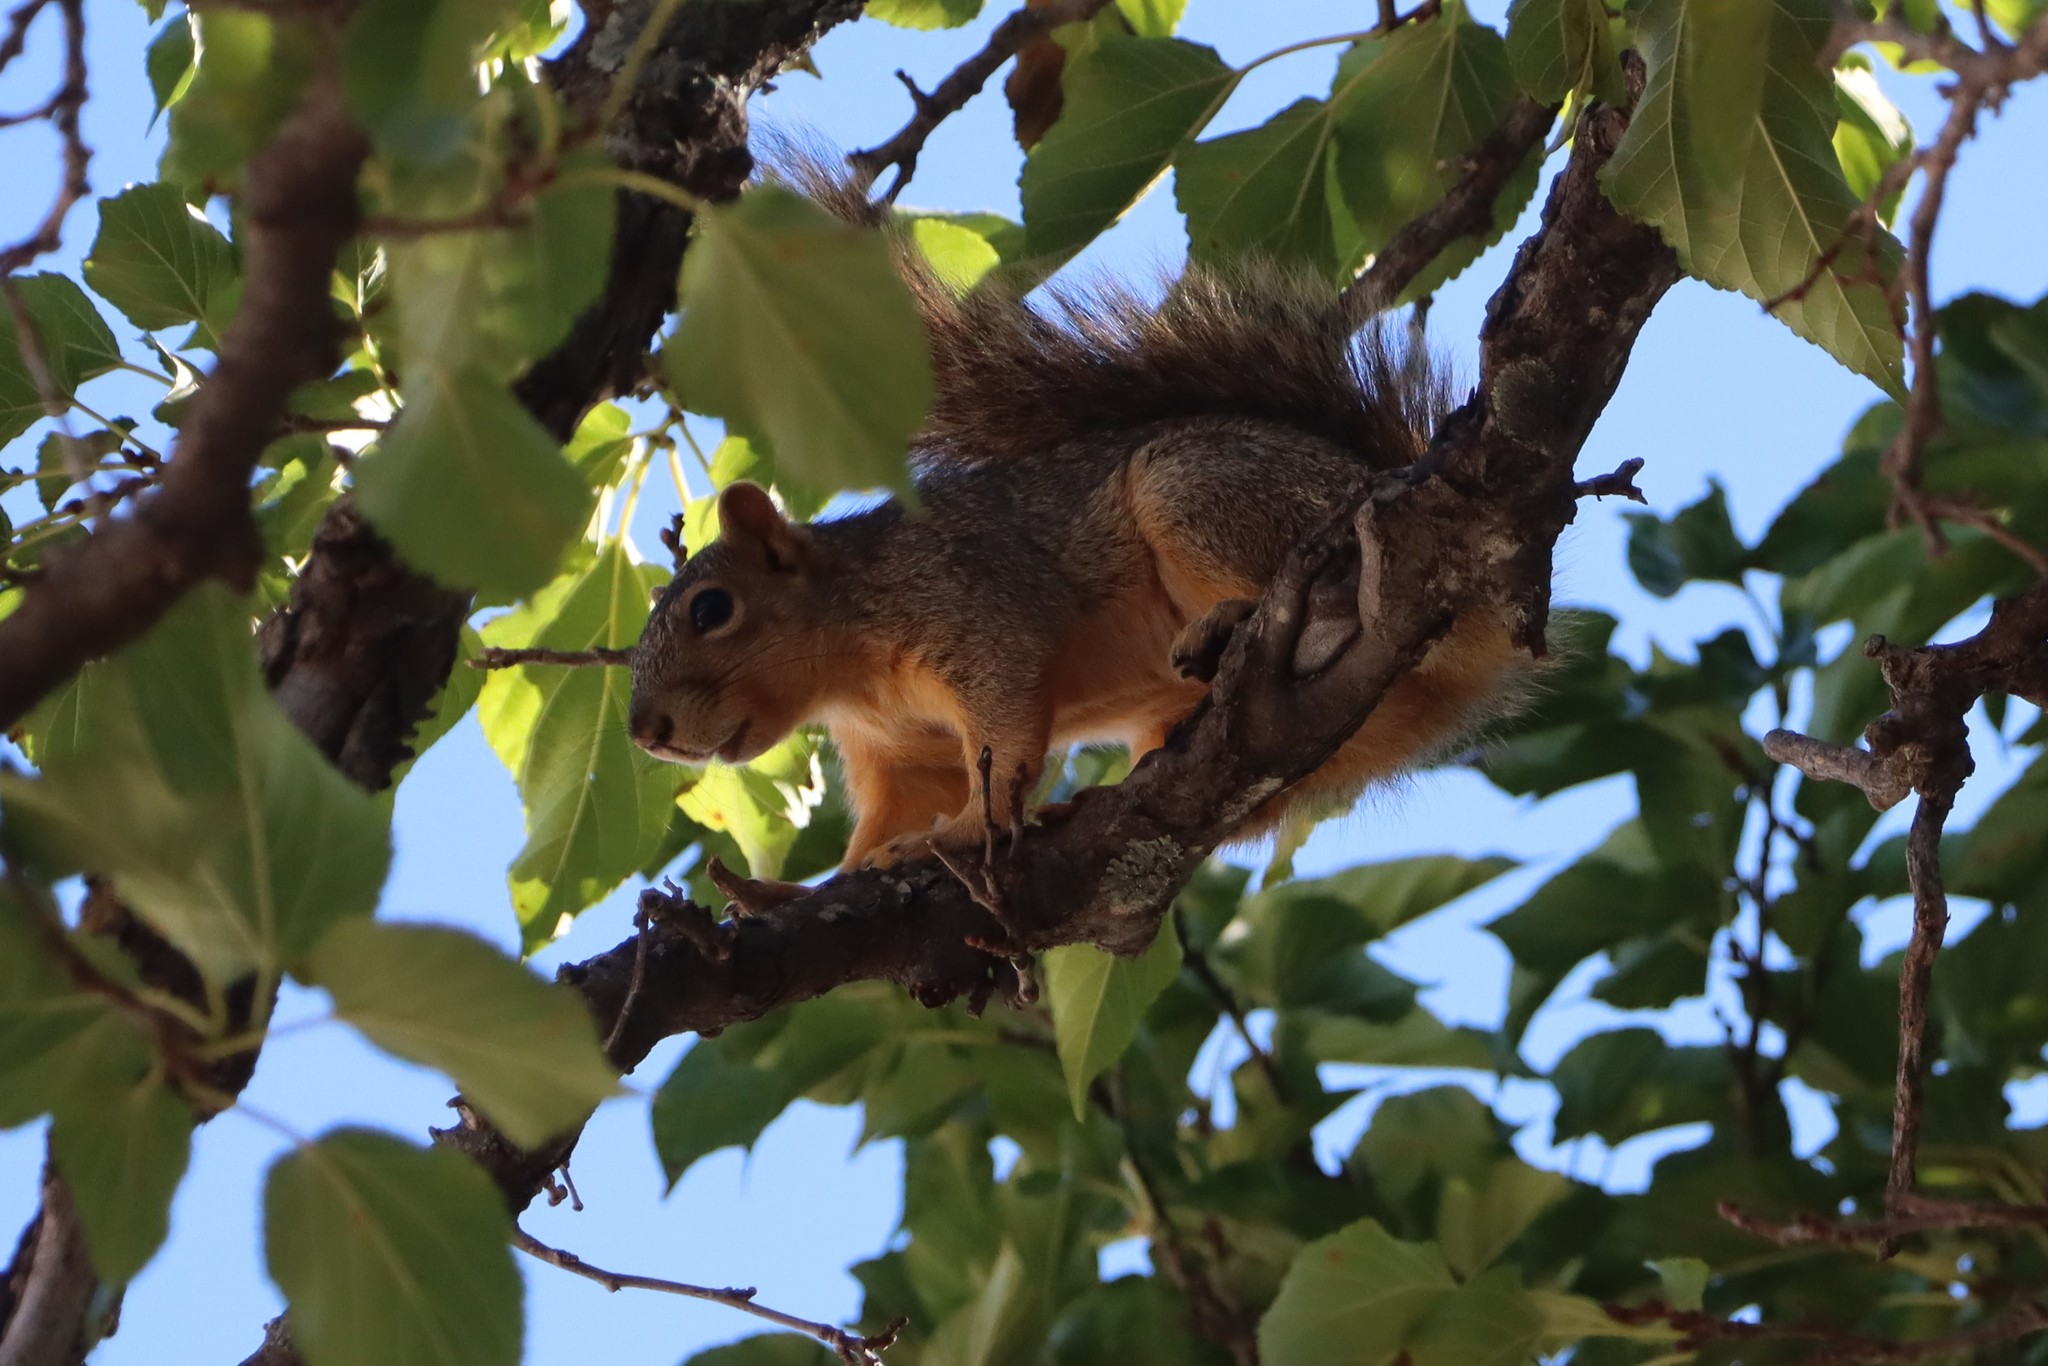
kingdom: Animalia
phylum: Chordata
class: Mammalia
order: Rodentia
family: Sciuridae
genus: Sciurus
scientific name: Sciurus niger
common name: Fox squirrel
